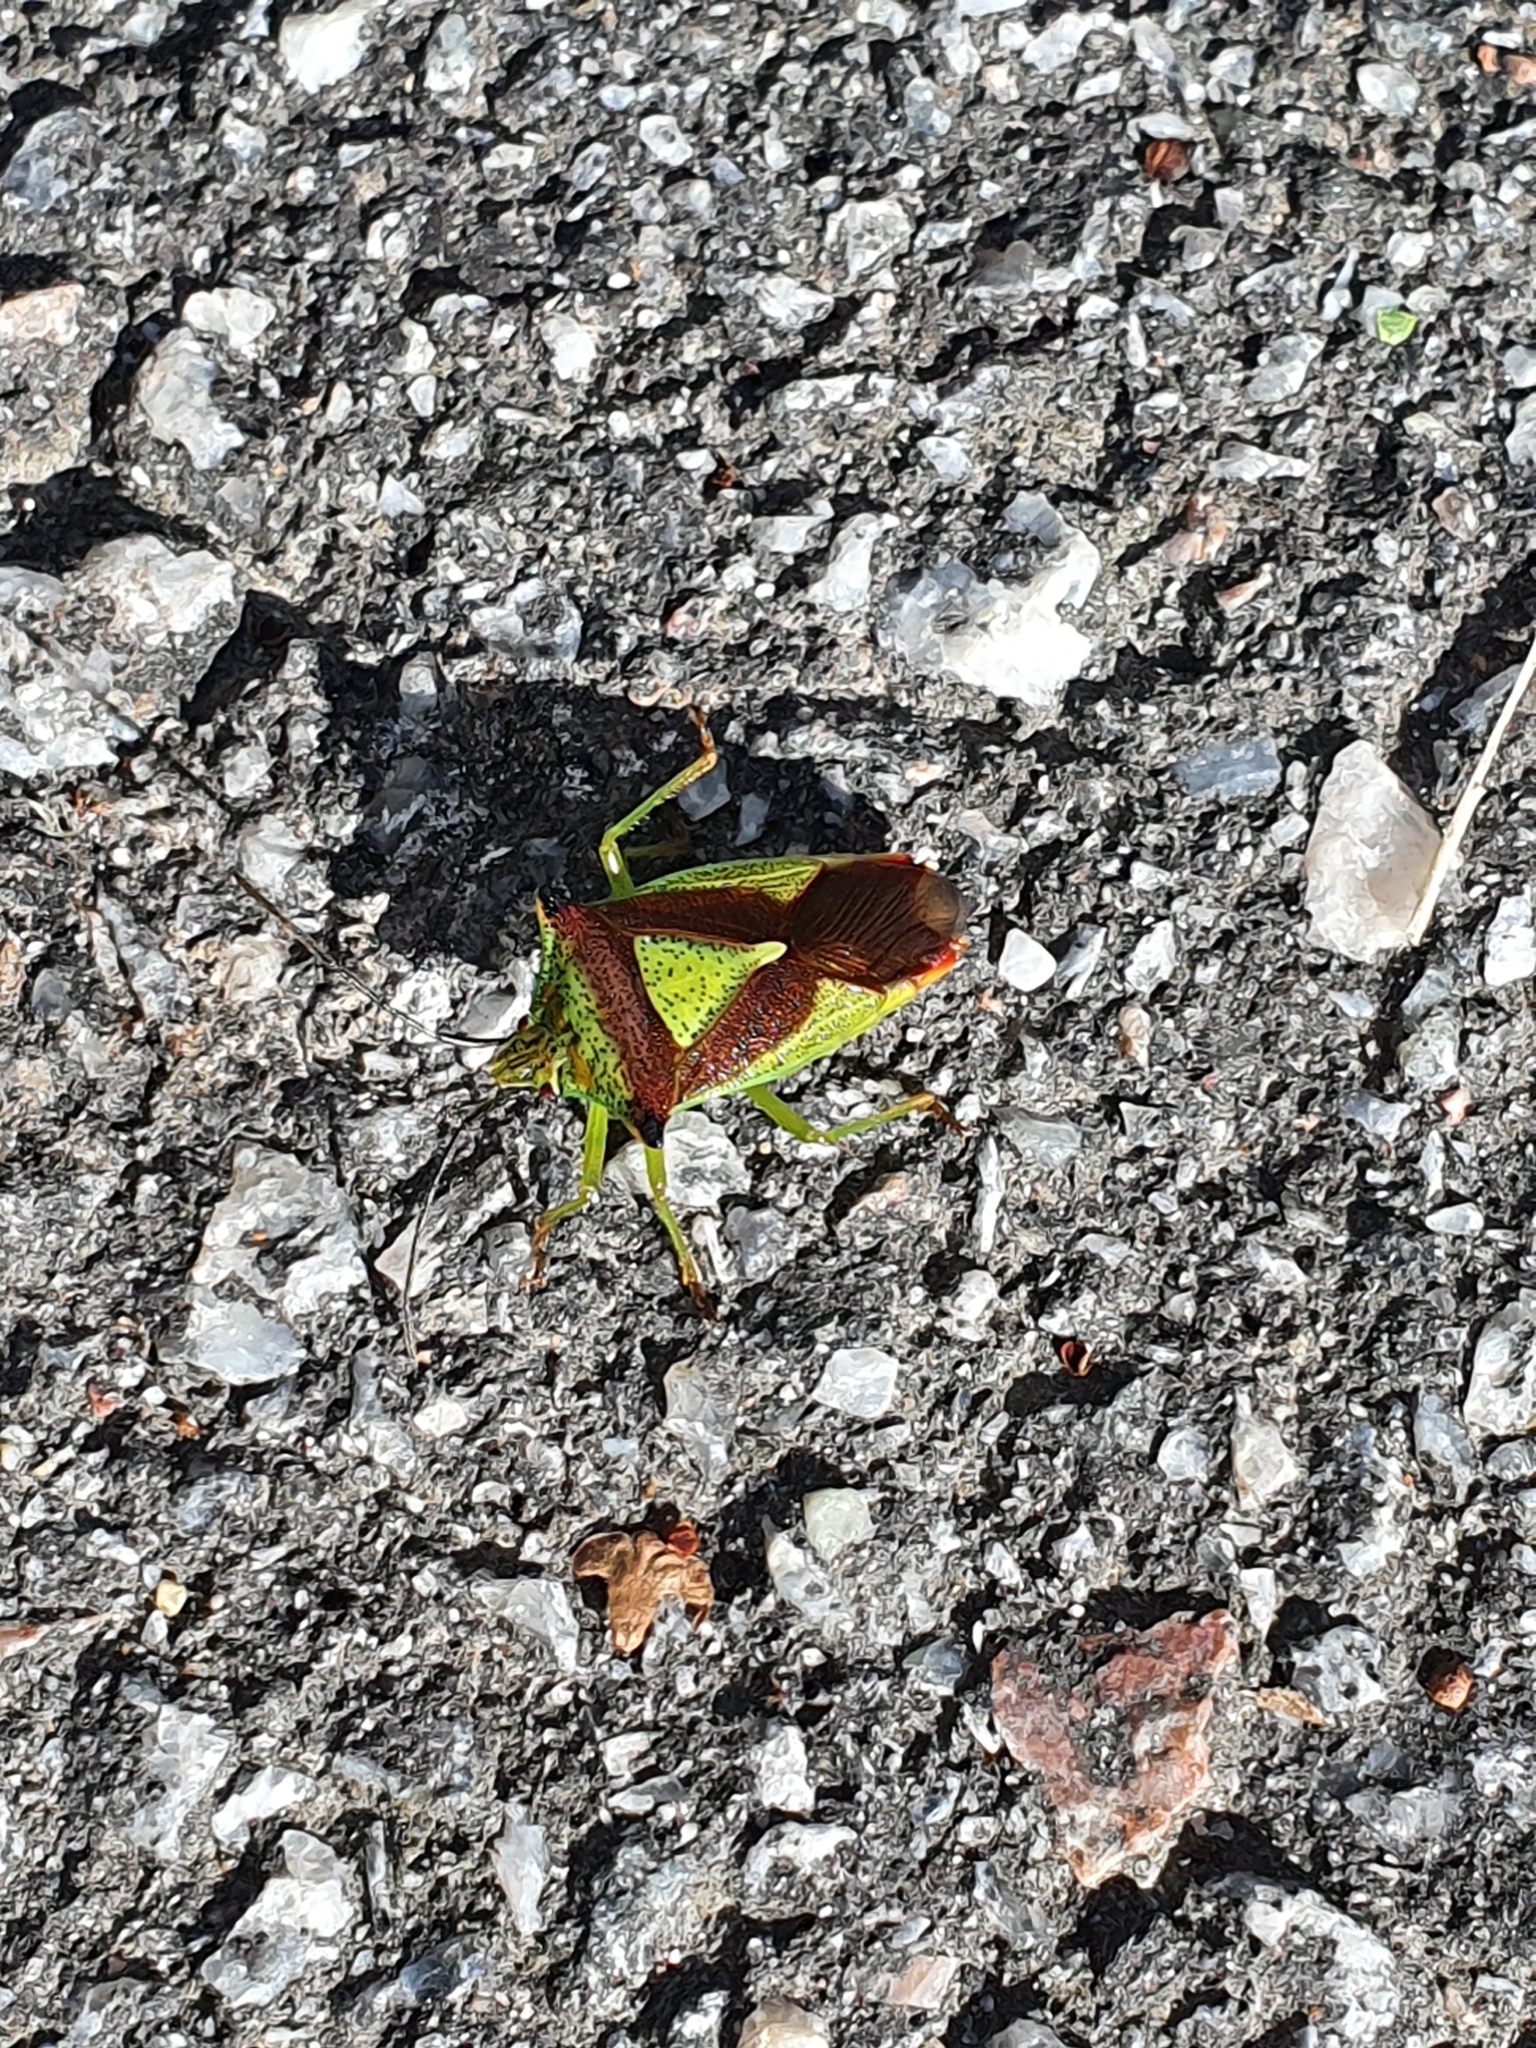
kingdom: Animalia
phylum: Arthropoda
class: Insecta
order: Hemiptera
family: Acanthosomatidae
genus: Acanthosoma
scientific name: Acanthosoma haemorrhoidale
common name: Hawthorn shieldbug
